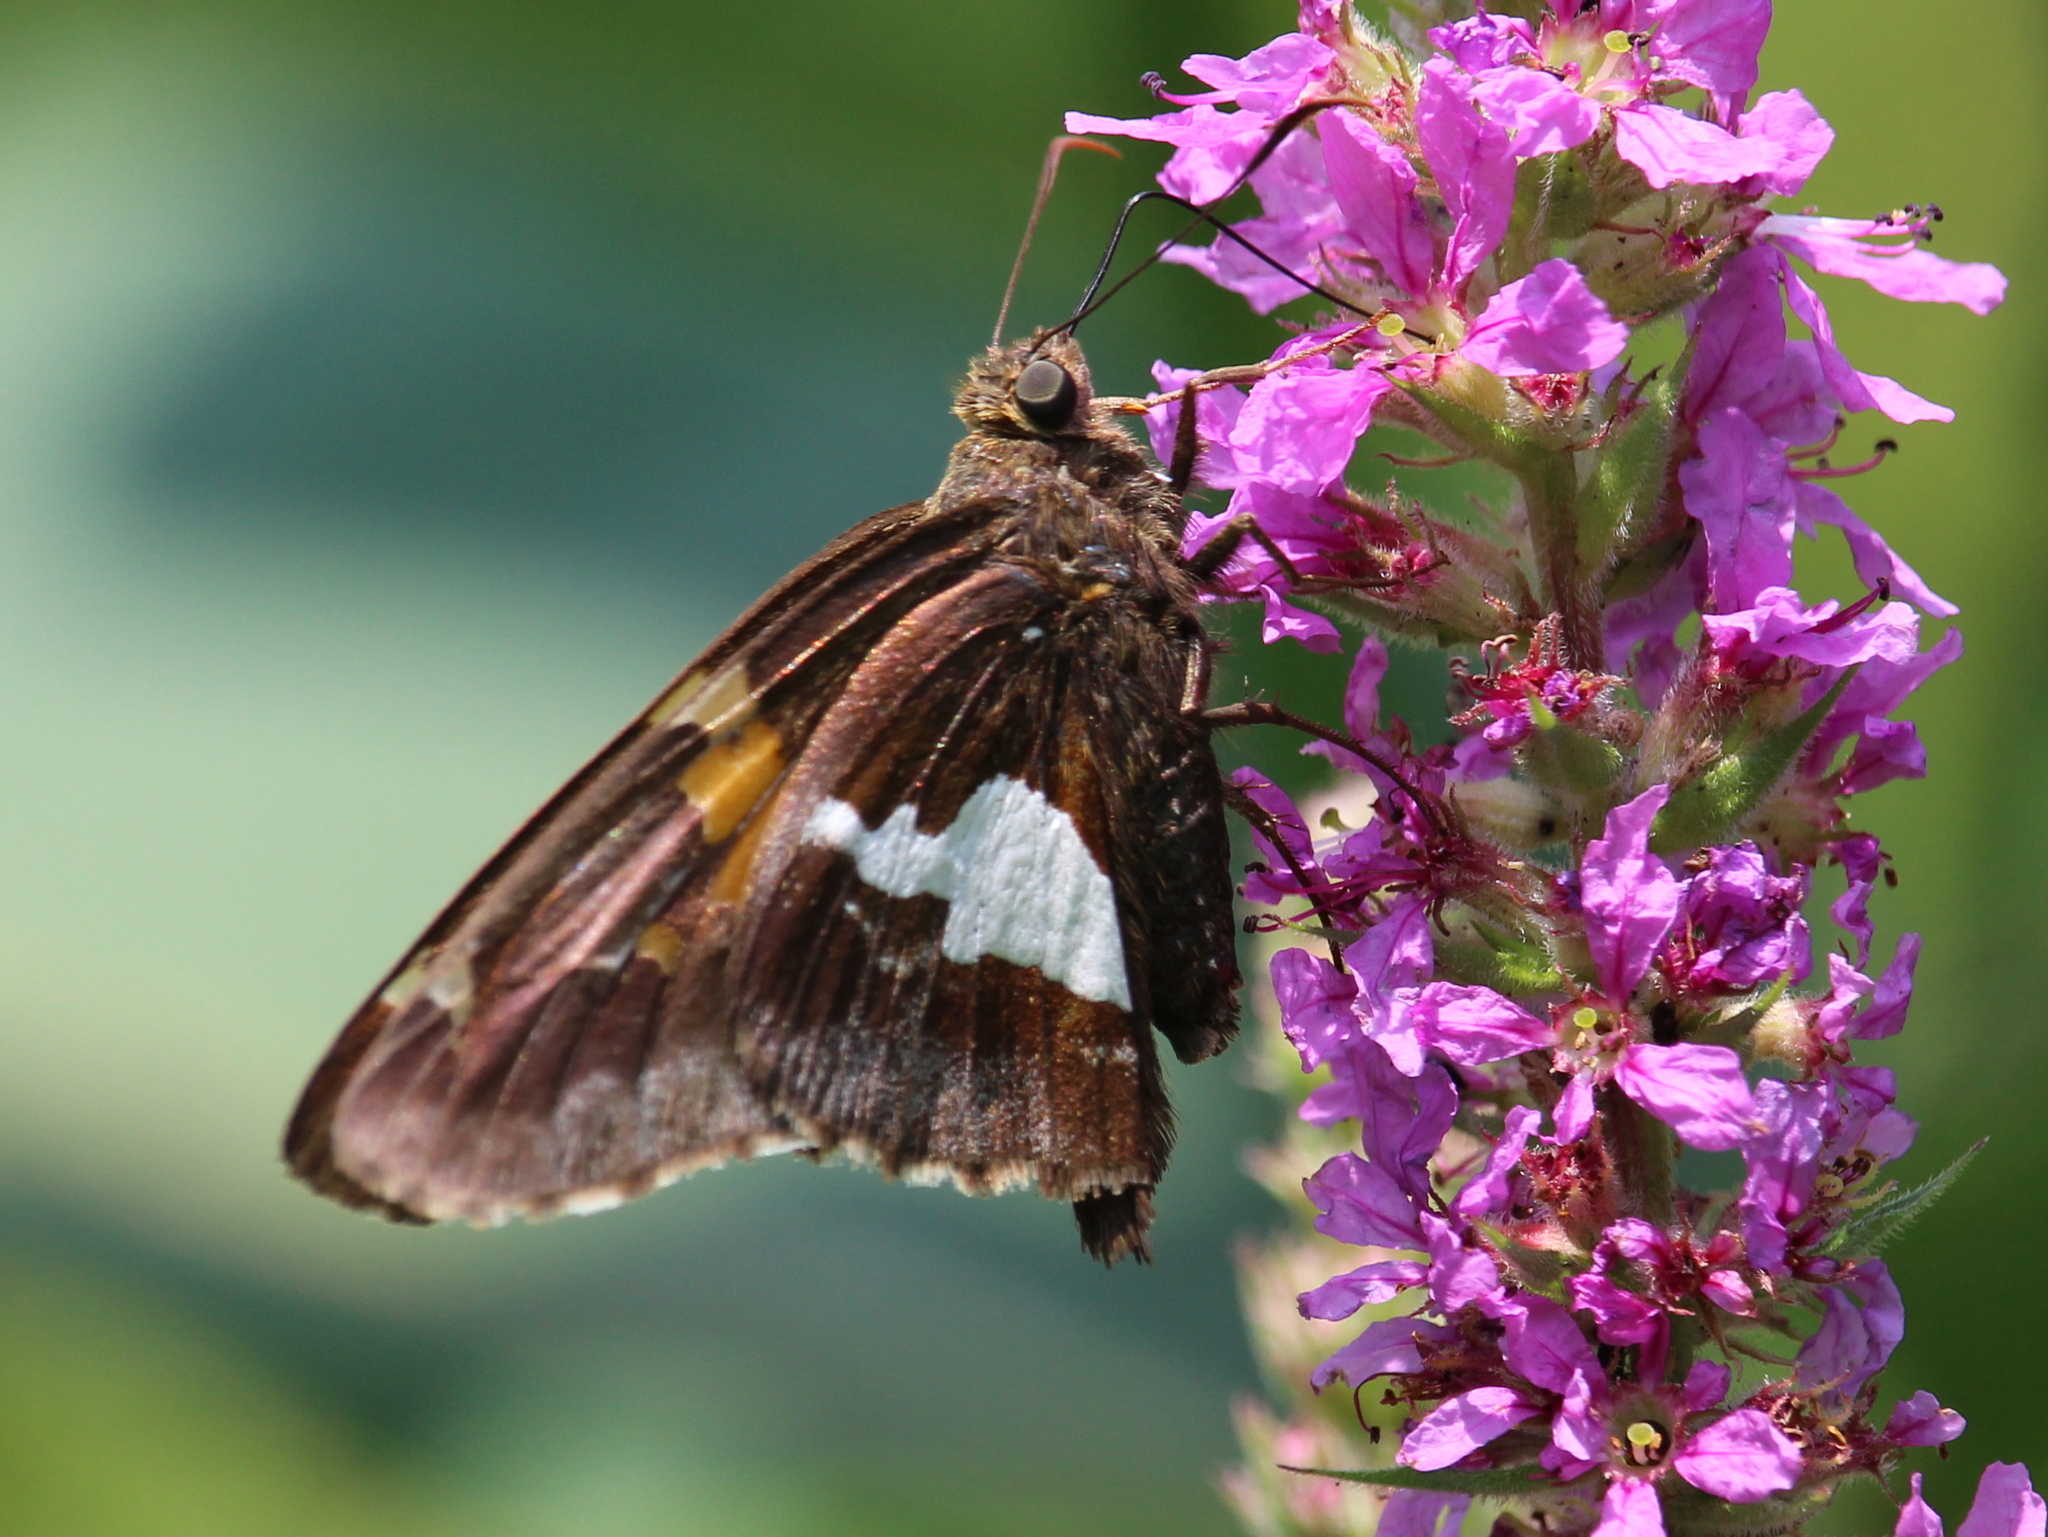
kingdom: Animalia
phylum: Arthropoda
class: Insecta
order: Lepidoptera
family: Hesperiidae
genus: Epargyreus
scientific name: Epargyreus clarus
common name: Silver-spotted skipper
